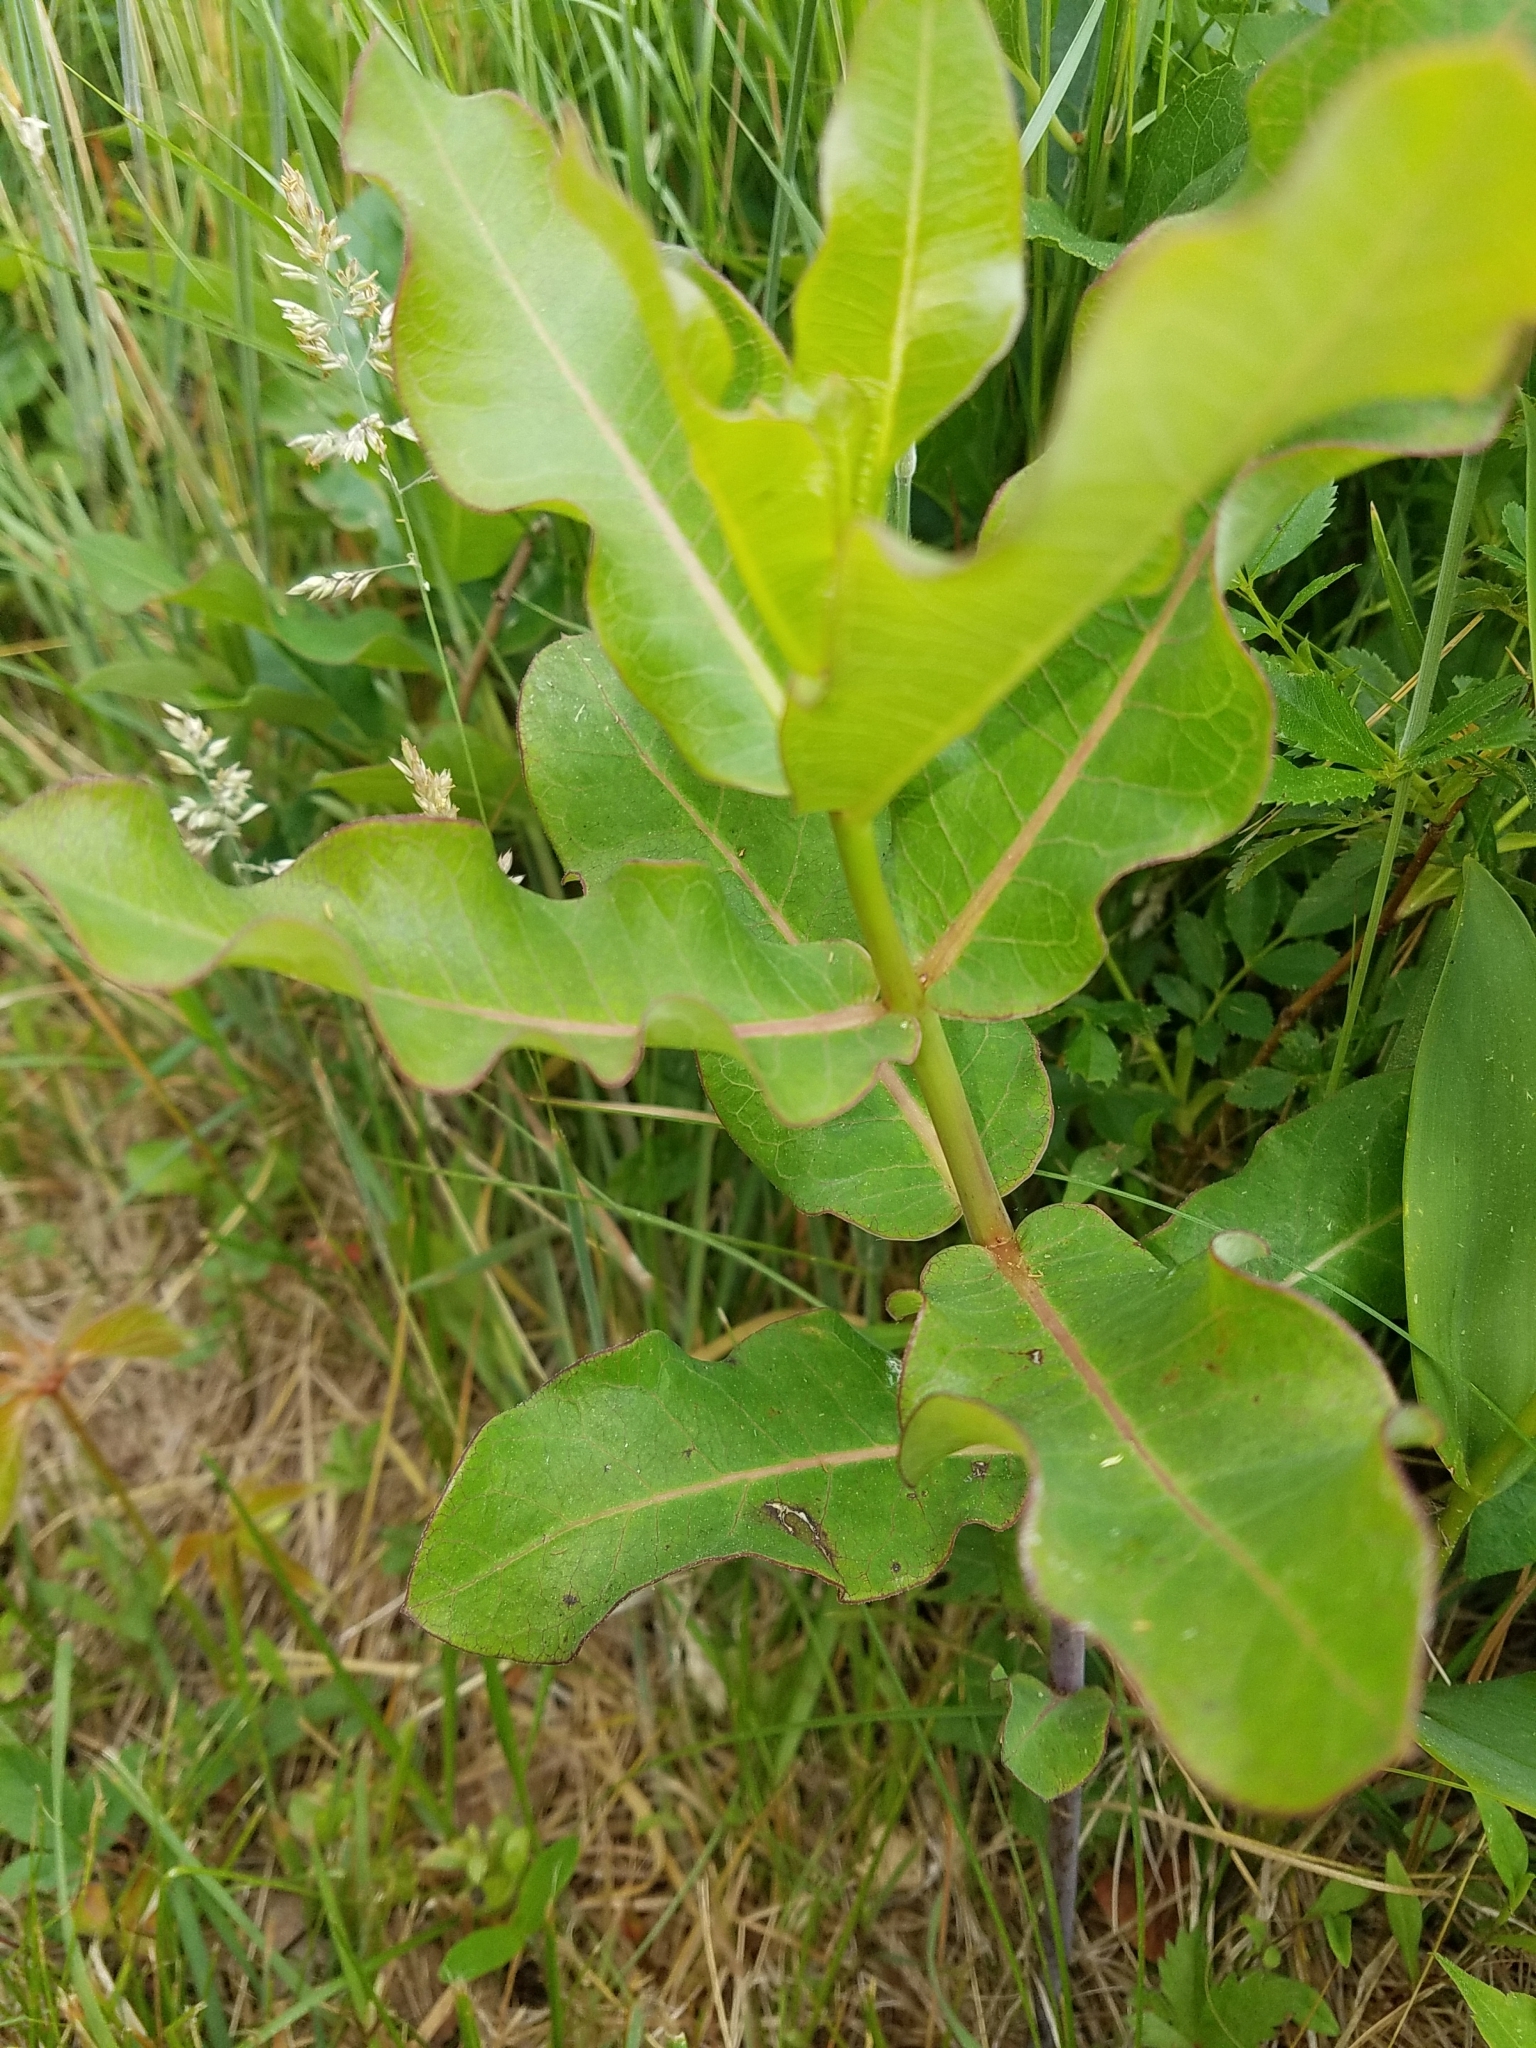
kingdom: Plantae
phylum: Tracheophyta
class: Magnoliopsida
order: Gentianales
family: Apocynaceae
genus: Asclepias
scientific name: Asclepias amplexicaulis
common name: Blunt-leaf milkweed
